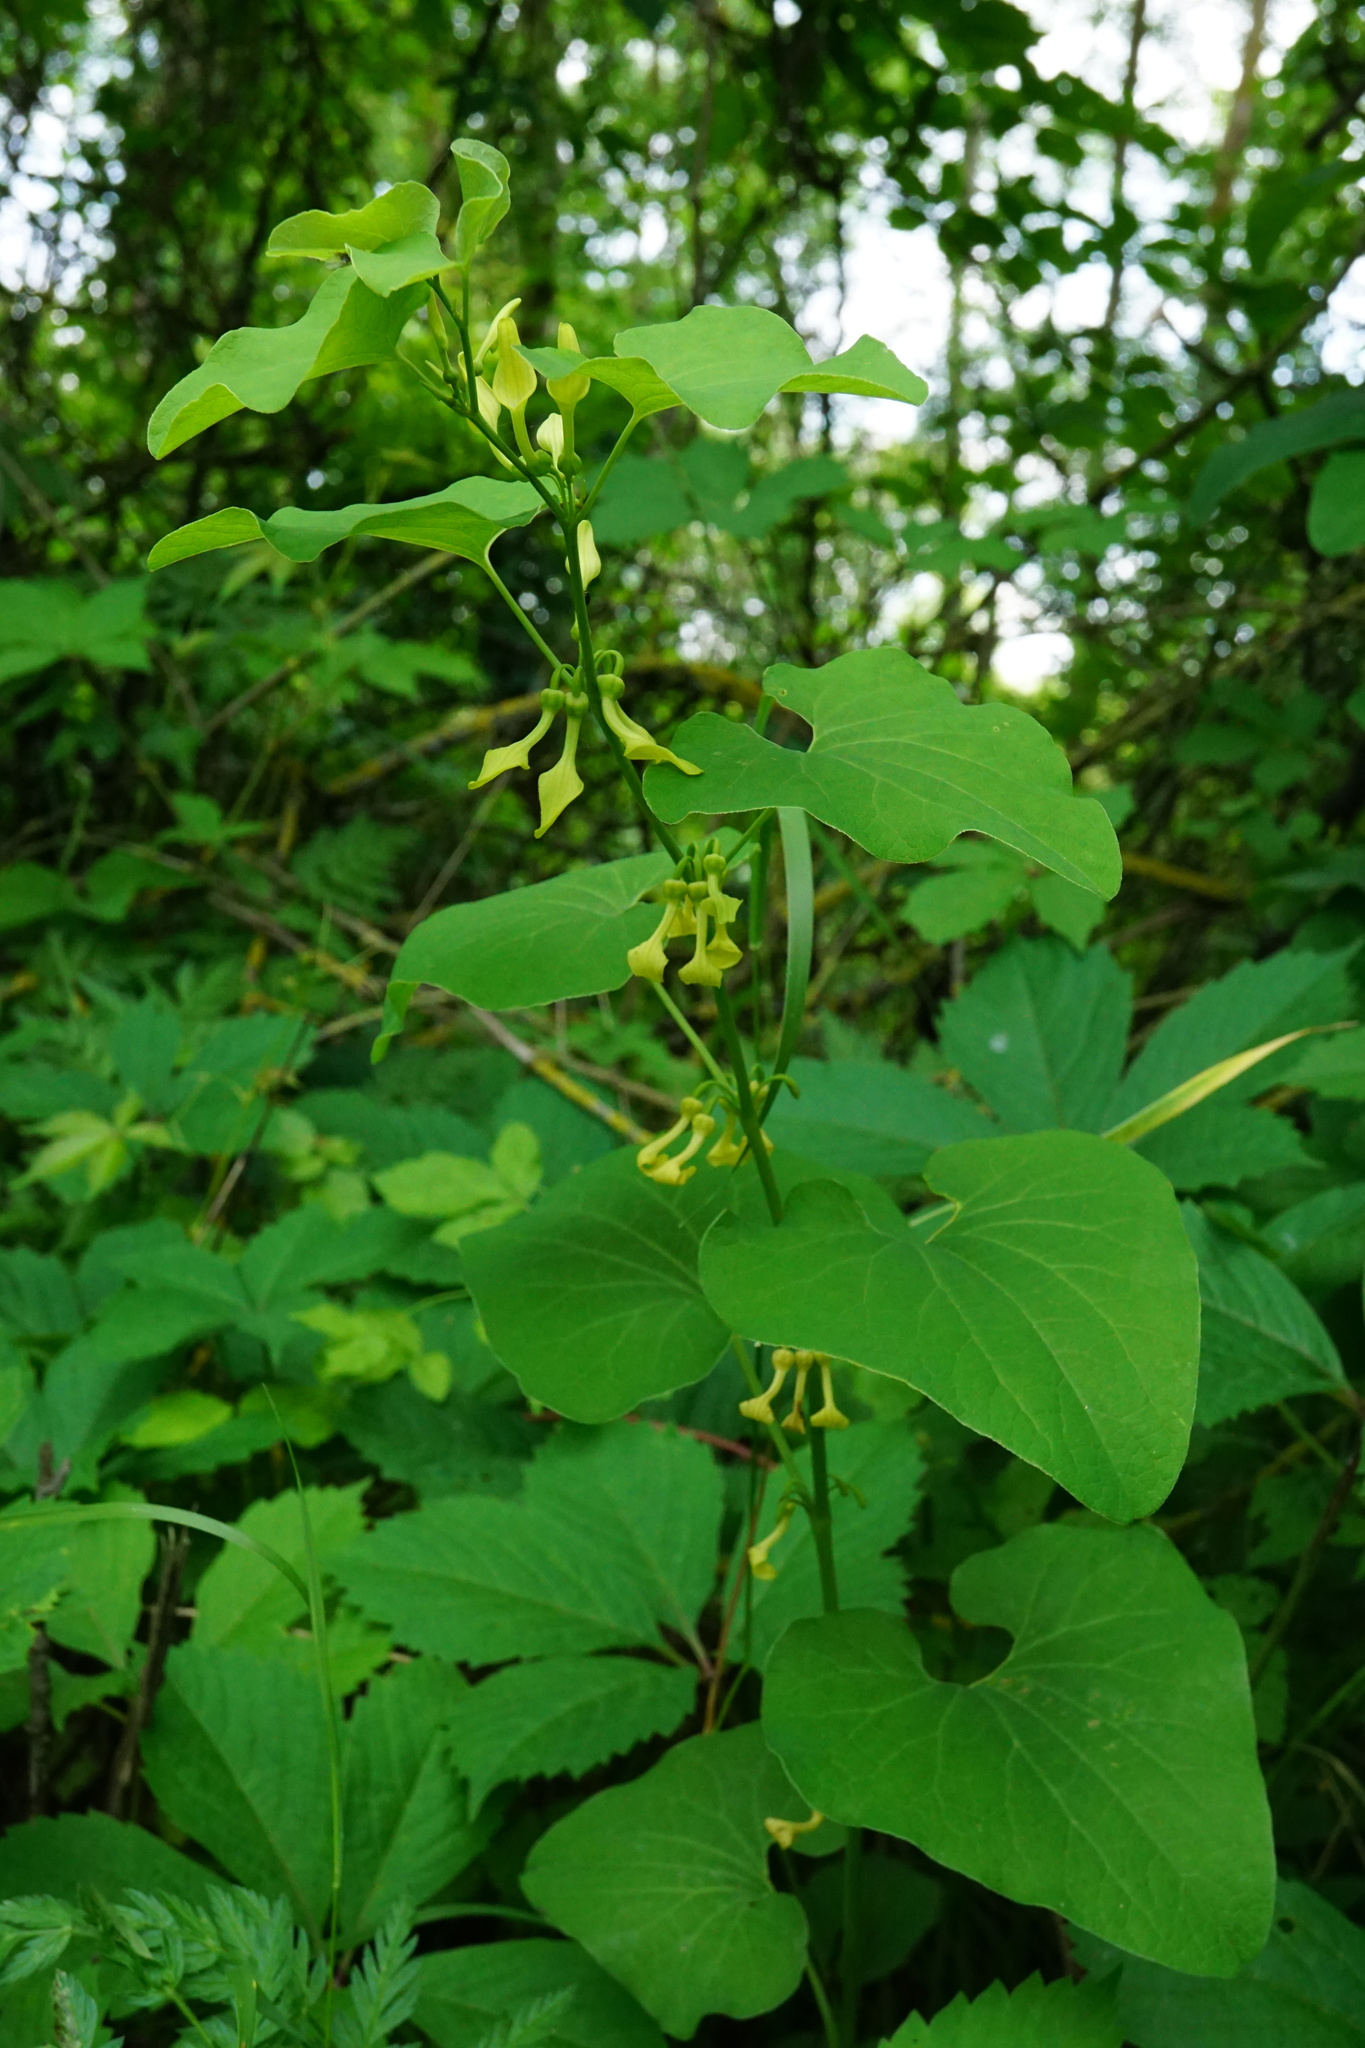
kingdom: Plantae
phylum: Tracheophyta
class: Magnoliopsida
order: Piperales
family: Aristolochiaceae
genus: Aristolochia
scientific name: Aristolochia clematitis
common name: Birthwort
